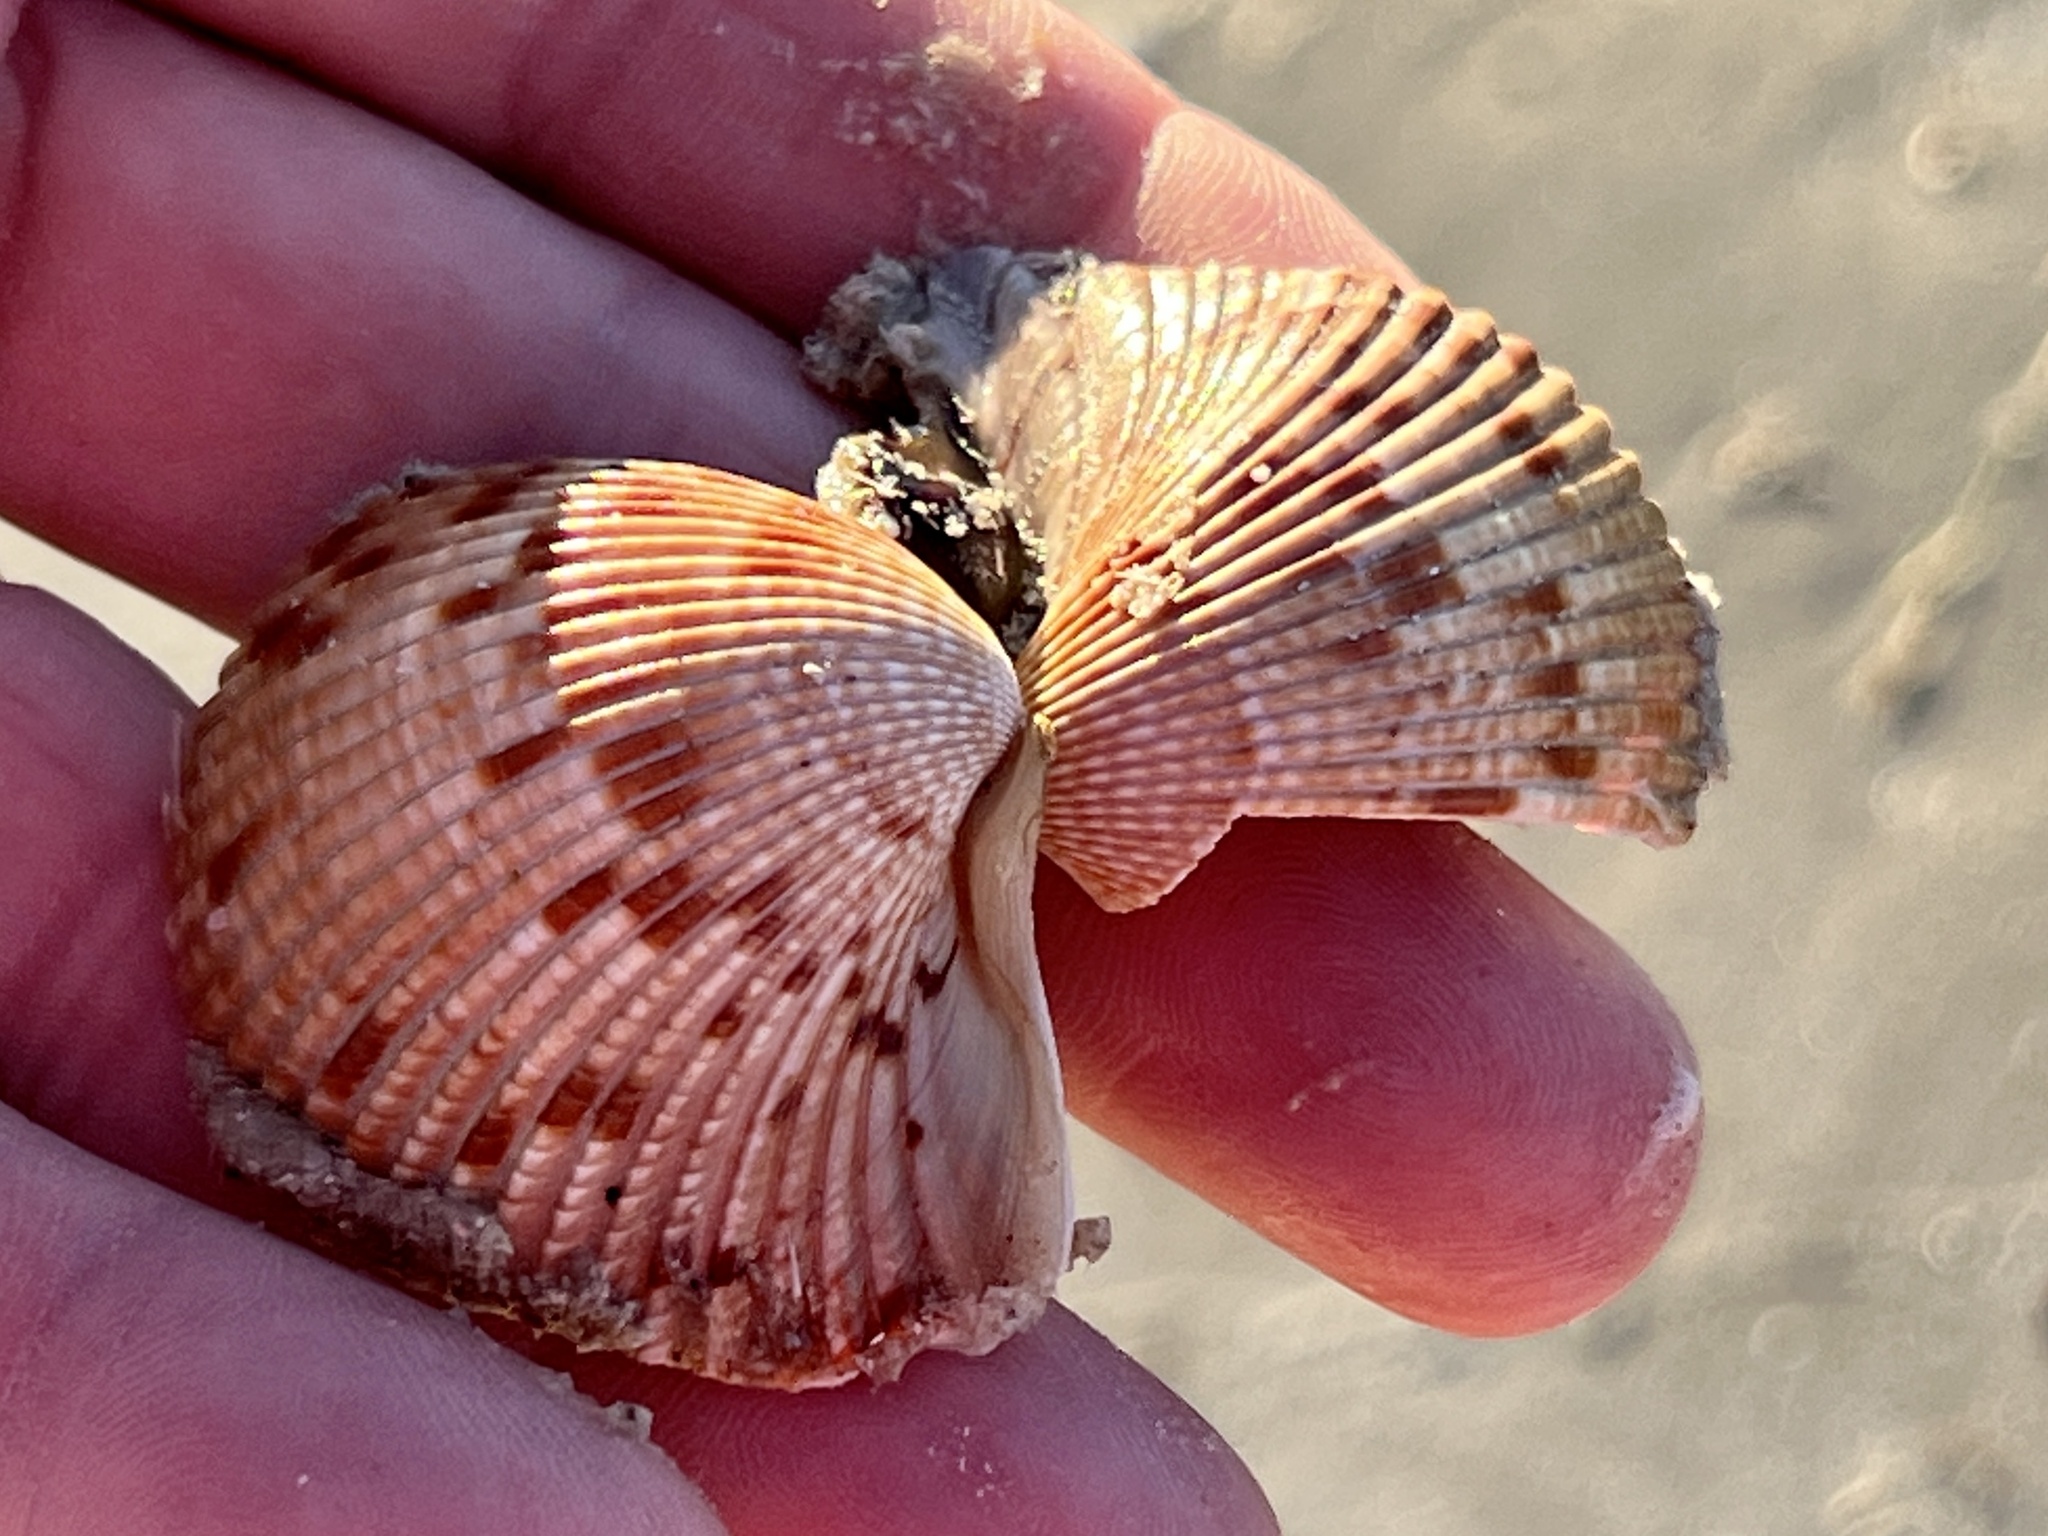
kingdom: Animalia
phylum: Mollusca
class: Bivalvia
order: Cardiida
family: Cardiidae
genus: Dinocardium
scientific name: Dinocardium robustum
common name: Atlantic giant cockle
